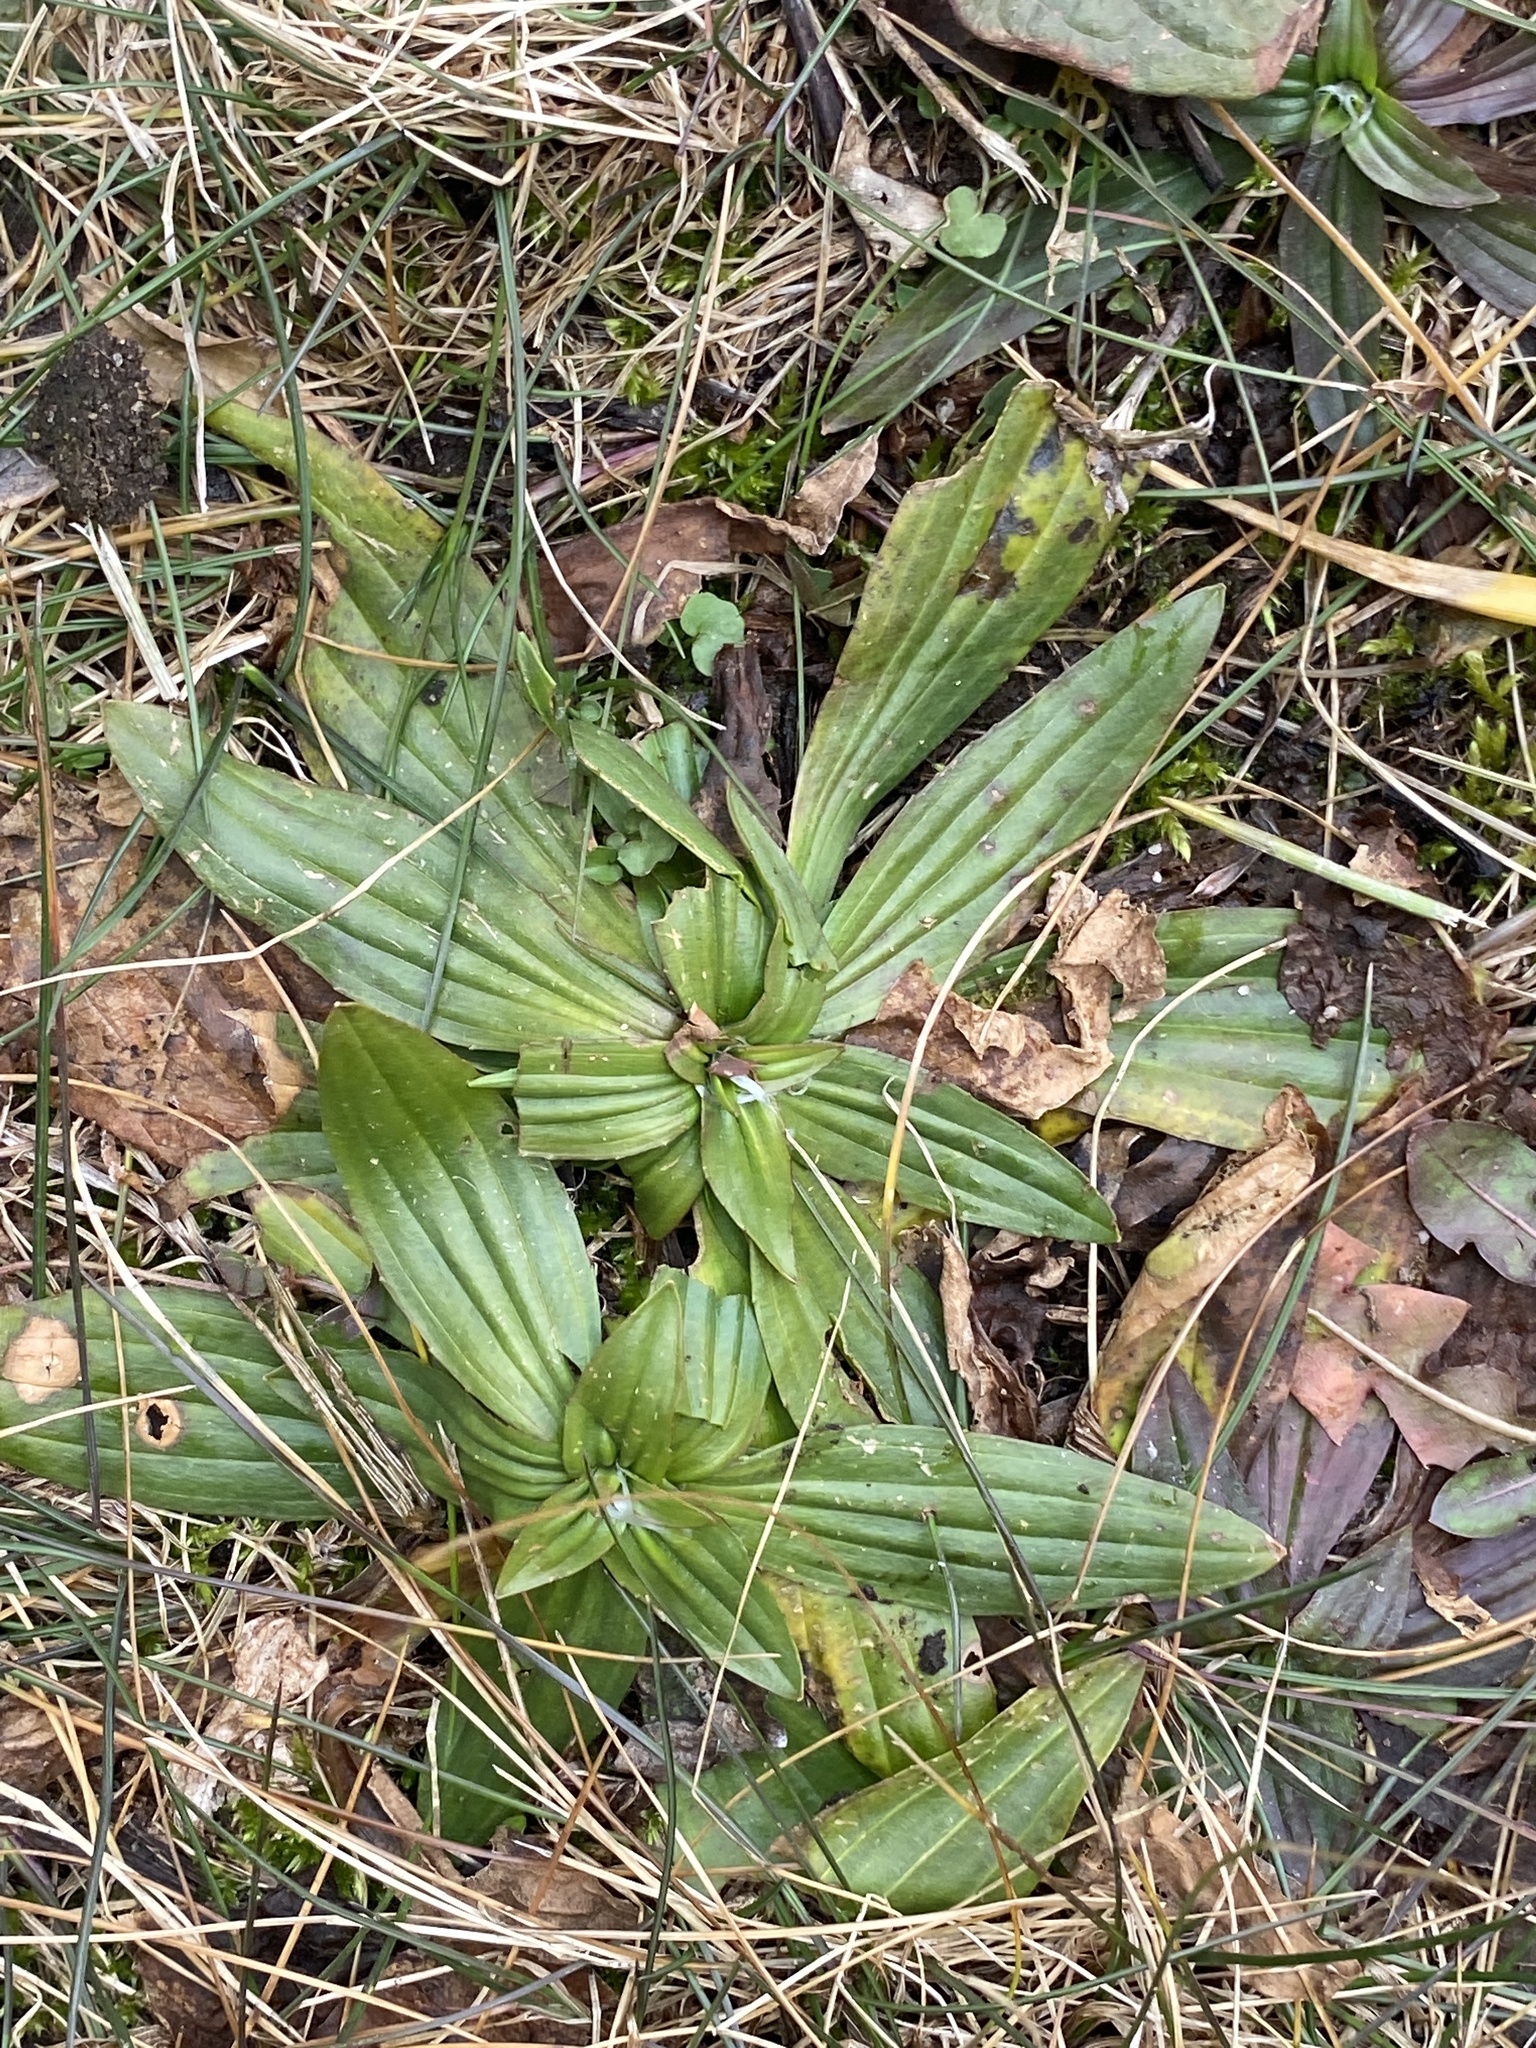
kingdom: Plantae
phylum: Tracheophyta
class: Magnoliopsida
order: Lamiales
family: Plantaginaceae
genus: Plantago
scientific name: Plantago lanceolata
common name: Ribwort plantain
